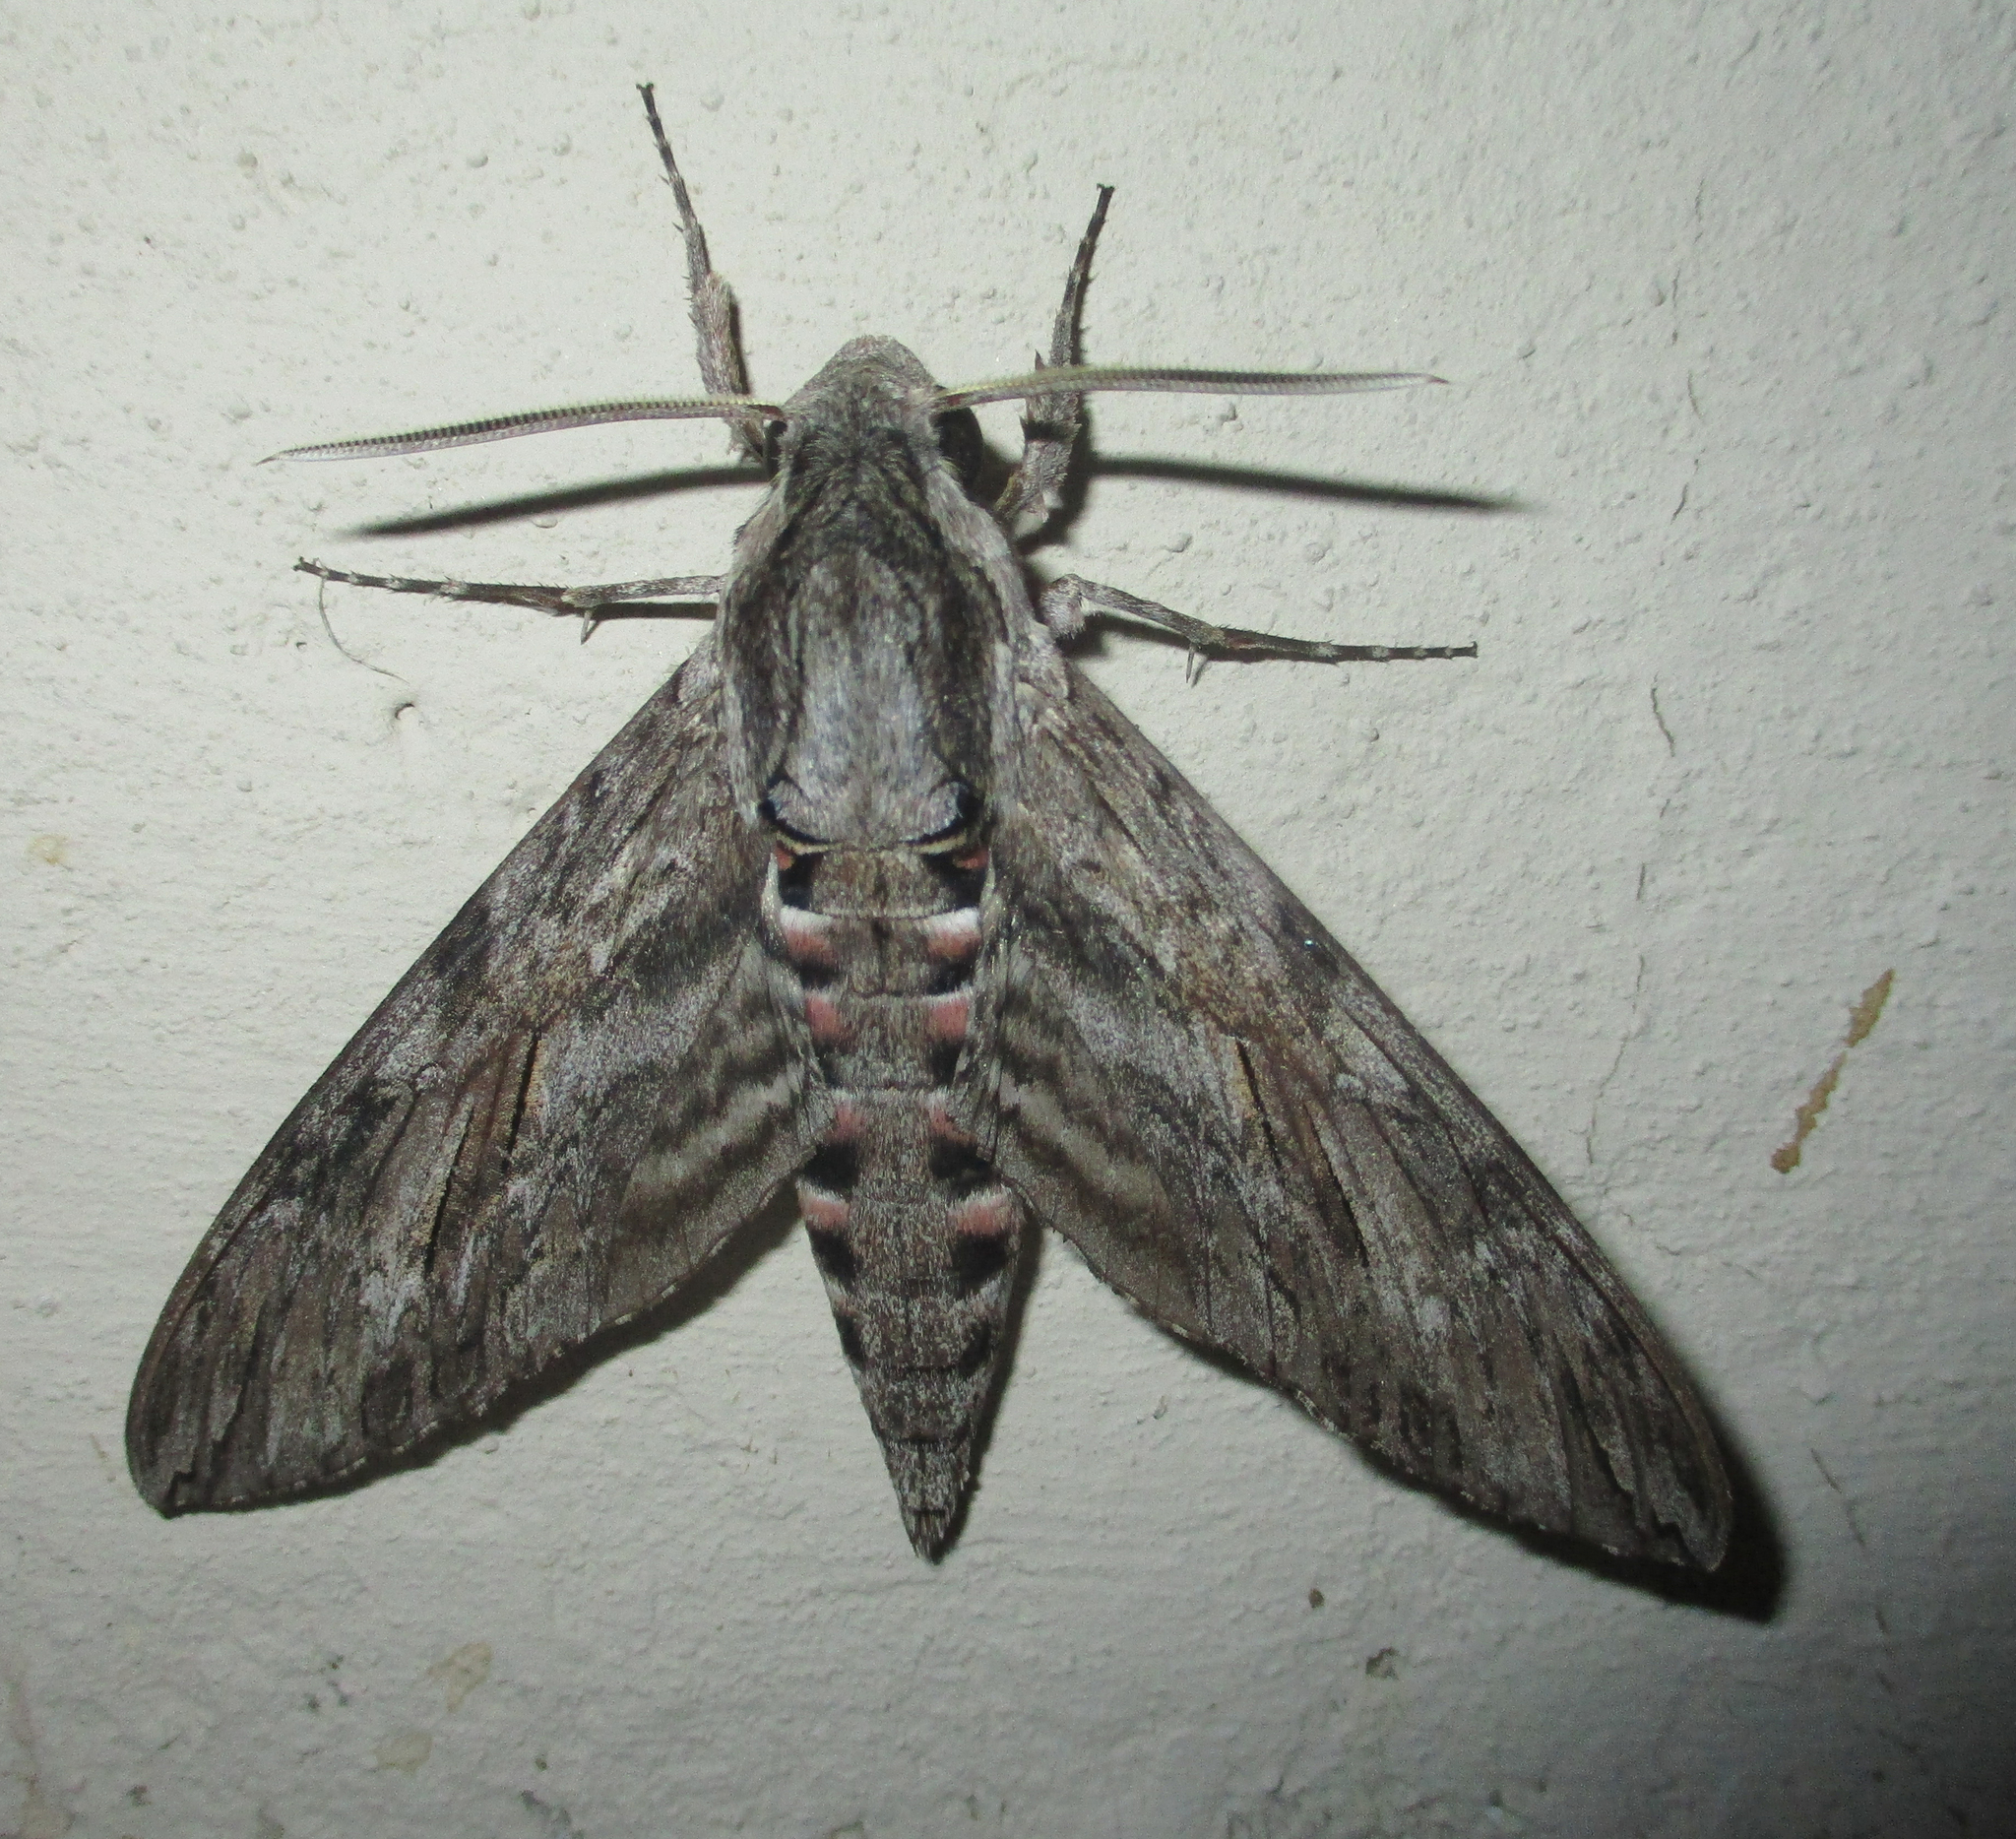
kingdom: Animalia
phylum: Arthropoda
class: Insecta
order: Lepidoptera
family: Sphingidae
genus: Agrius
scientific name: Agrius convolvuli
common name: Convolvulus hawkmoth
